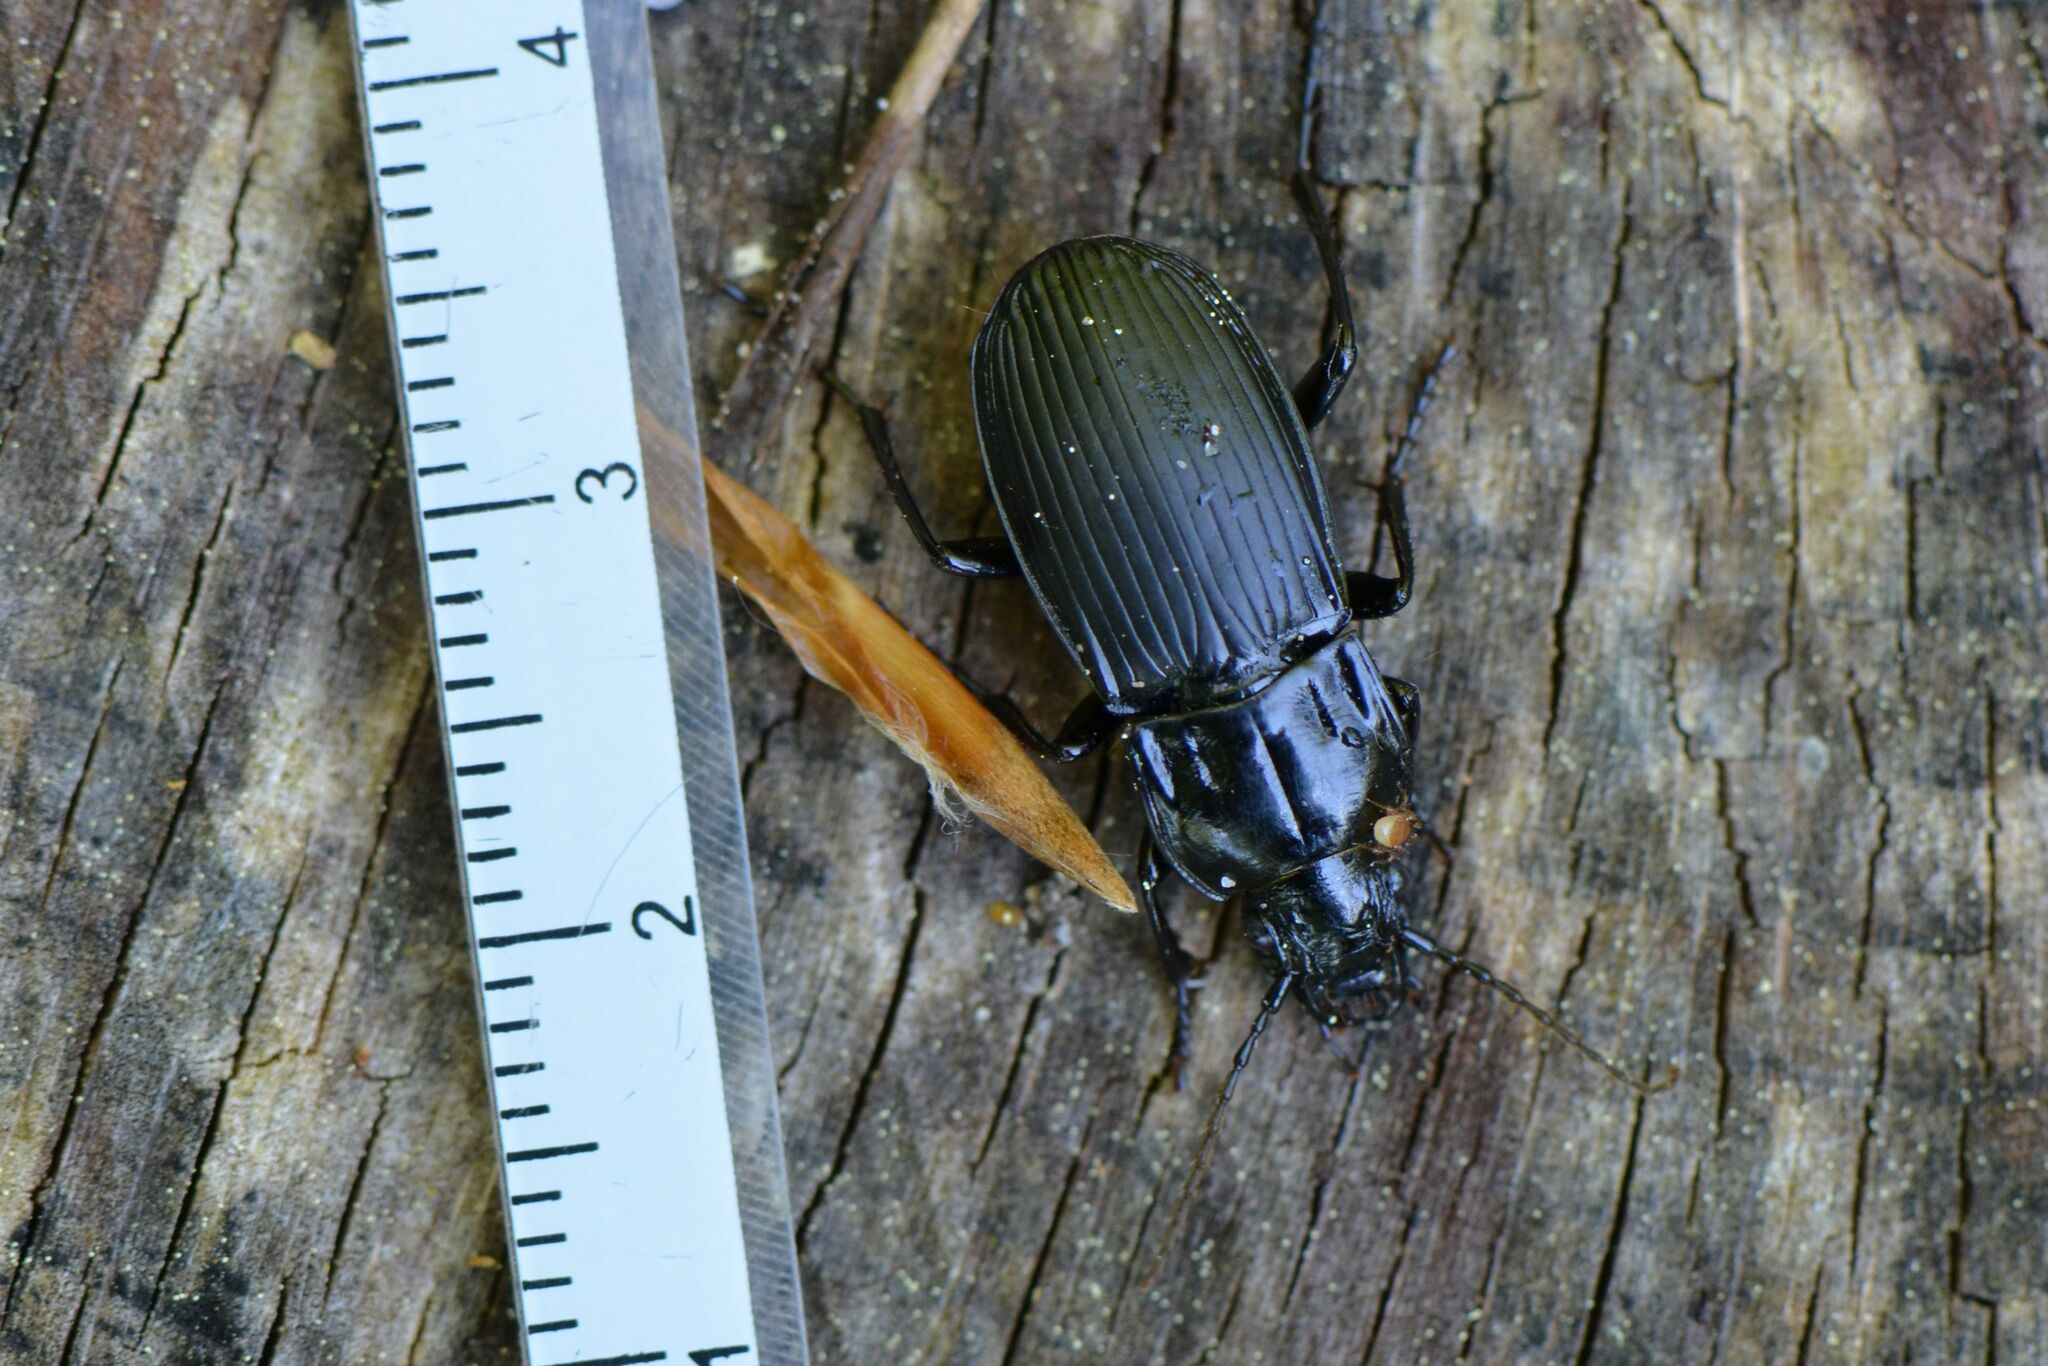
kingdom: Animalia
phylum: Arthropoda
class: Insecta
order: Coleoptera
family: Carabidae
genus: Abax
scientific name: Abax parallelepipedus
